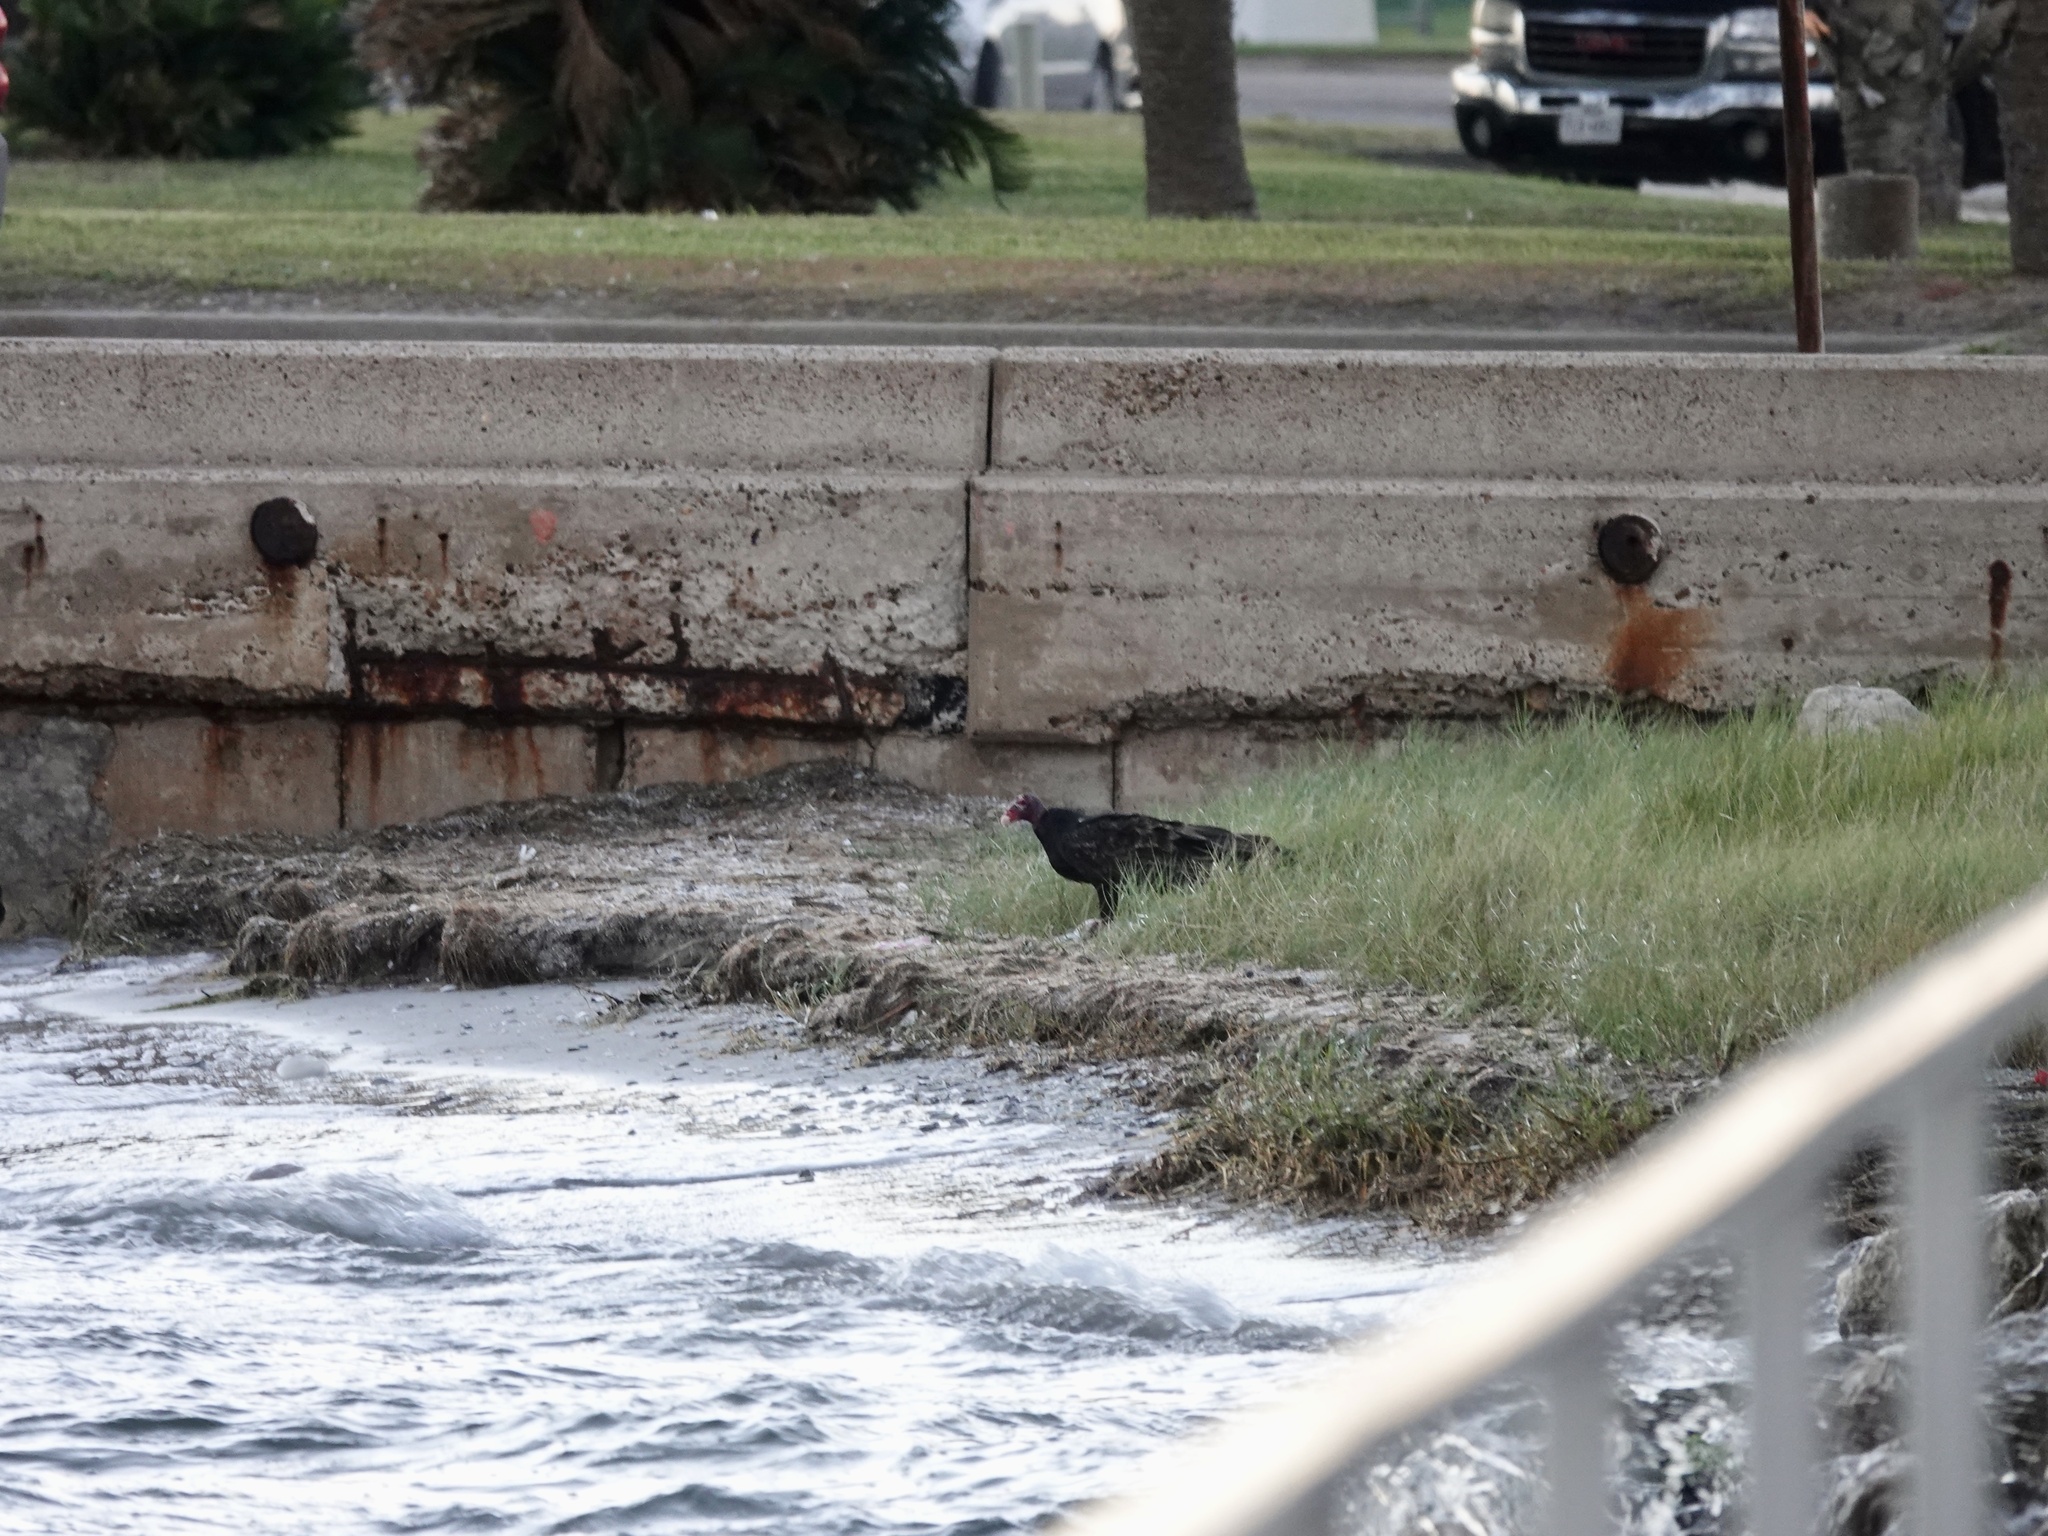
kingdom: Animalia
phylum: Chordata
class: Aves
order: Accipitriformes
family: Cathartidae
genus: Cathartes
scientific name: Cathartes aura
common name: Turkey vulture
